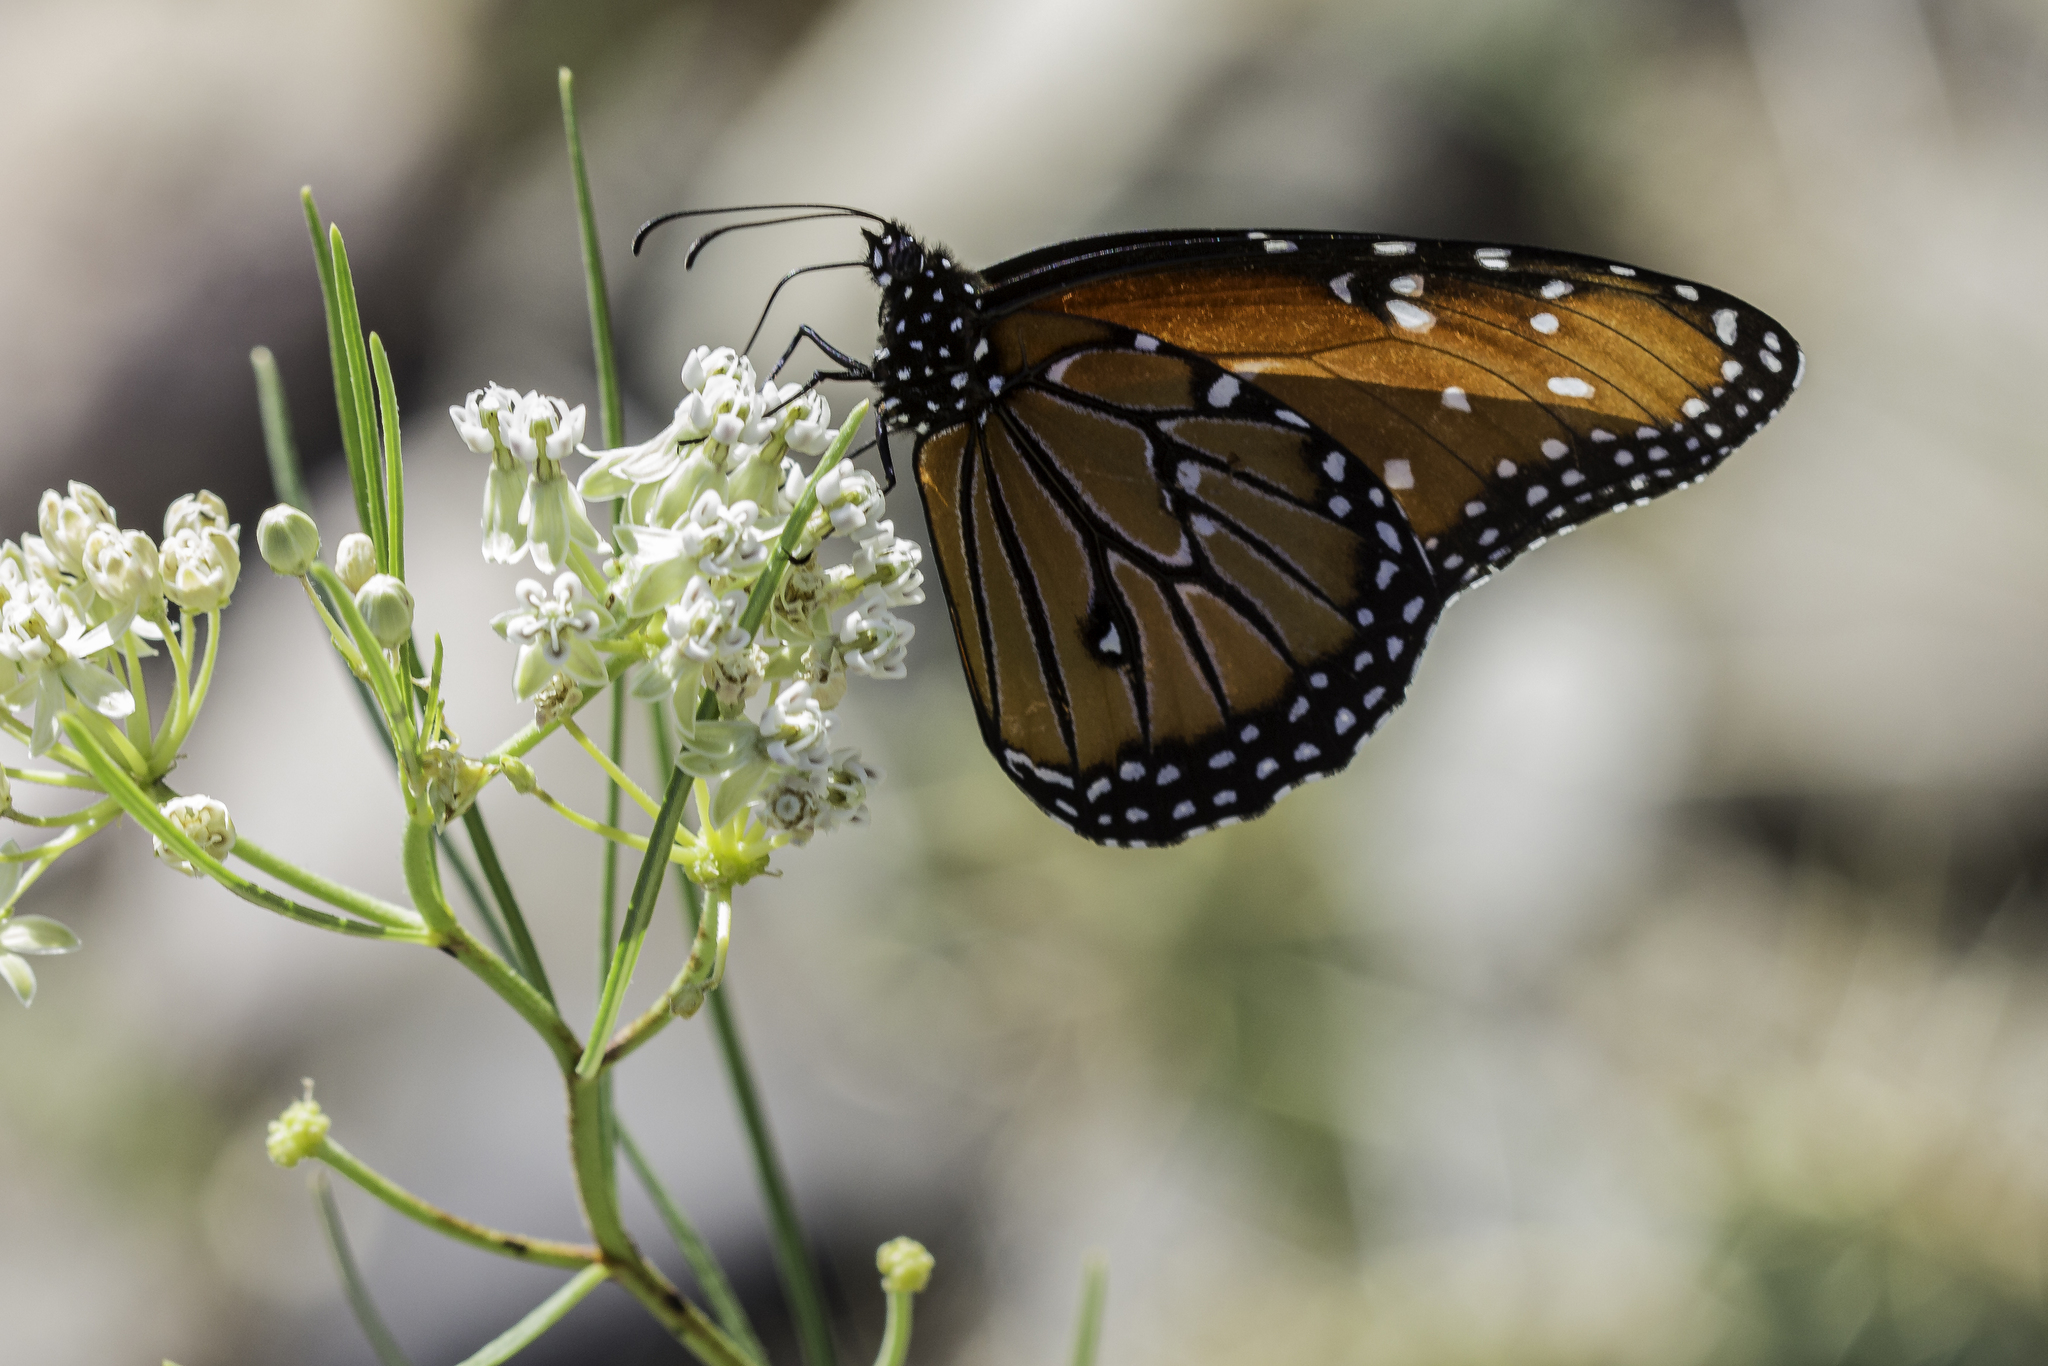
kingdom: Animalia
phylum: Arthropoda
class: Insecta
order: Lepidoptera
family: Nymphalidae
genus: Danaus
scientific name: Danaus gilippus
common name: Queen
